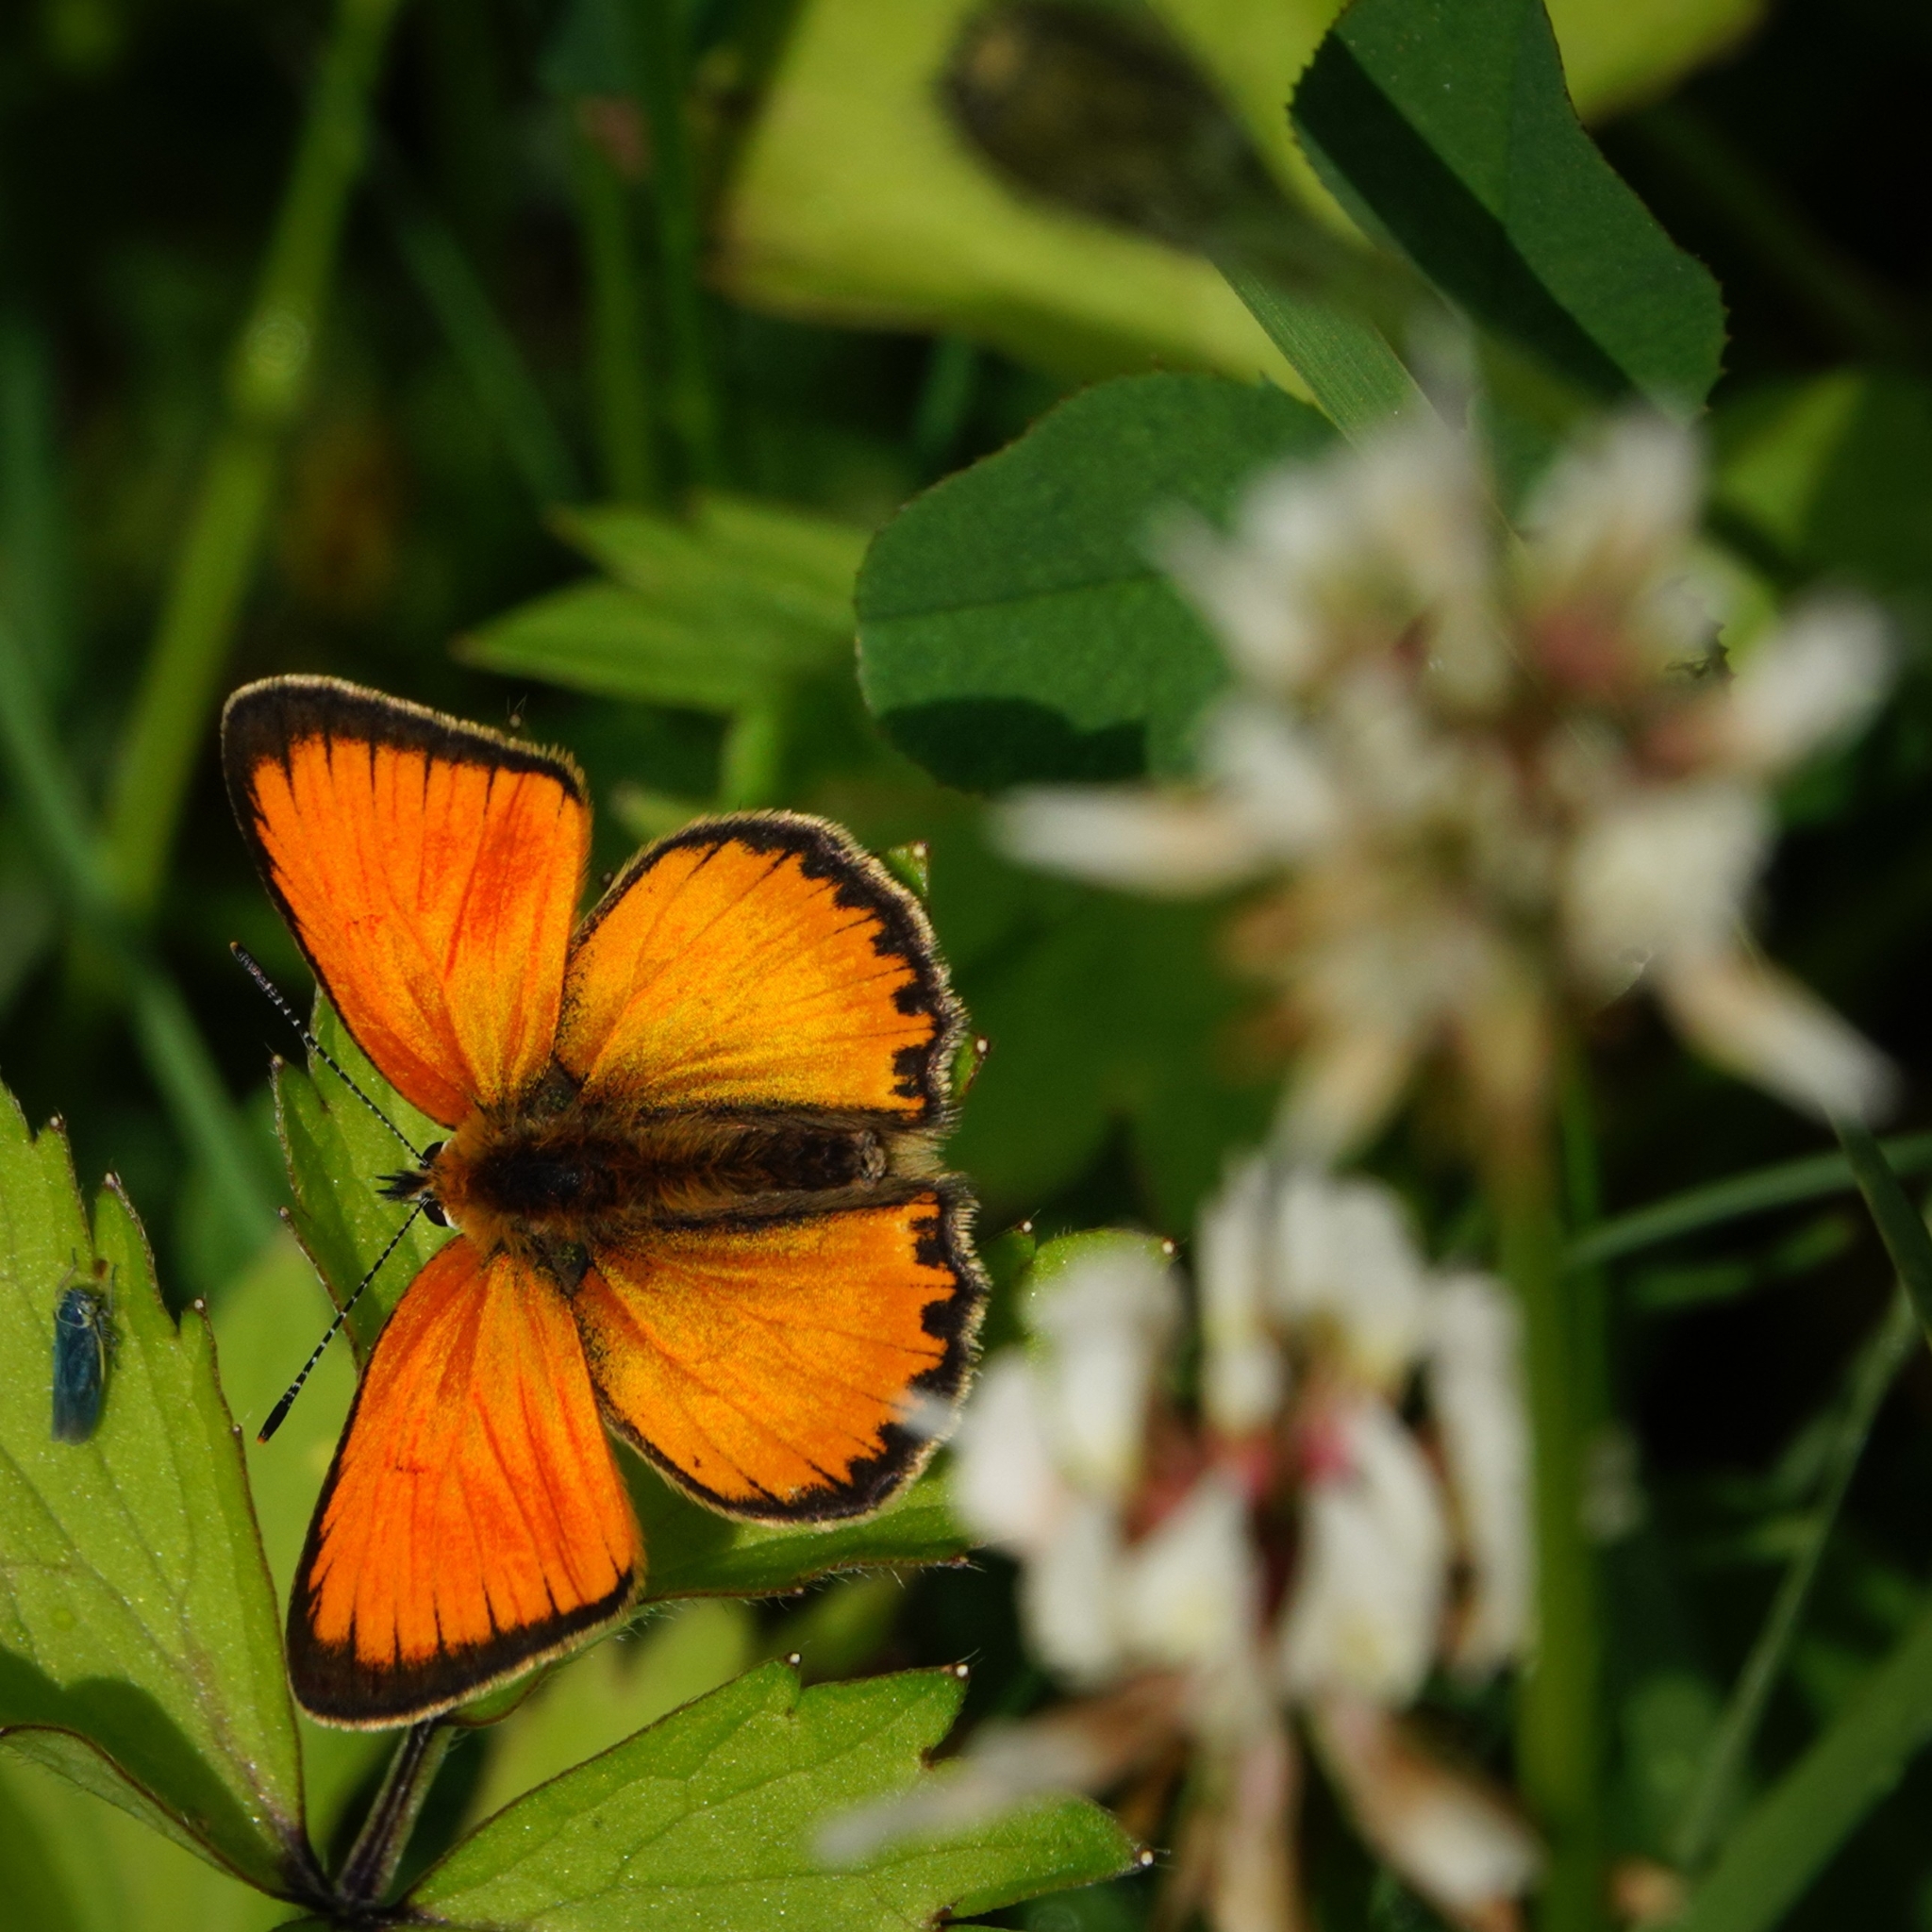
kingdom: Animalia
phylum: Arthropoda
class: Insecta
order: Lepidoptera
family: Lycaenidae
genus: Lycaena
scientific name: Lycaena virgaureae
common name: Scarce copper
